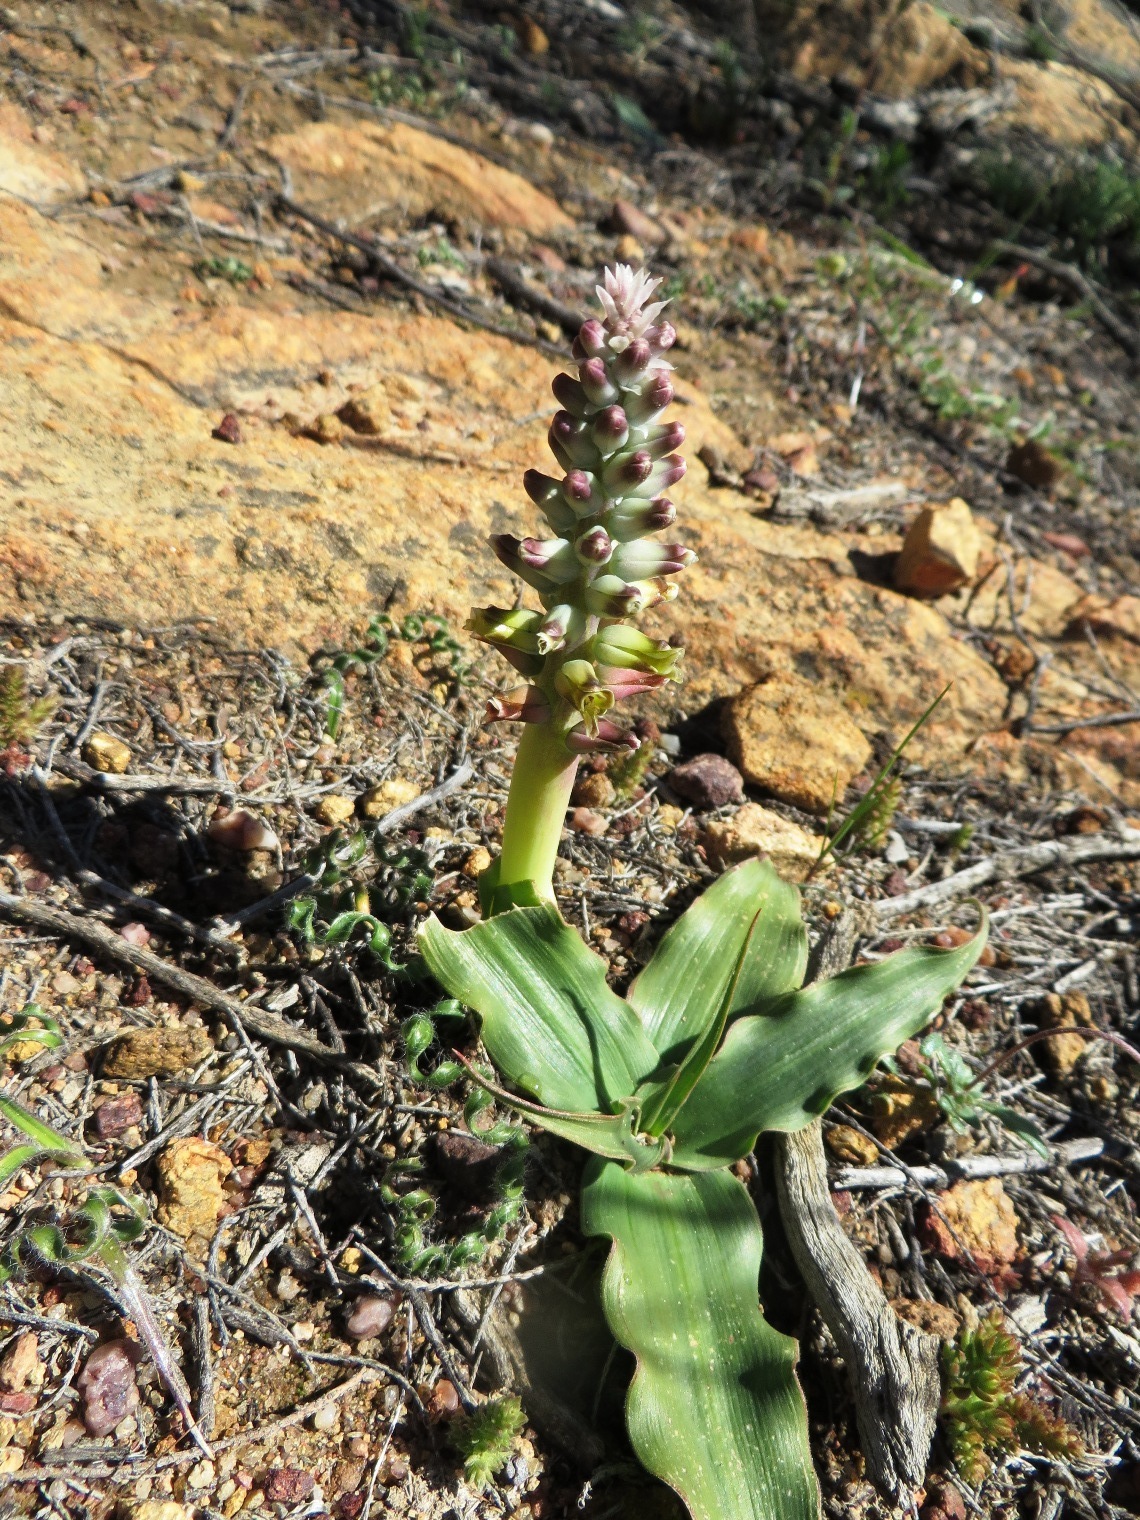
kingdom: Plantae
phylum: Tracheophyta
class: Liliopsida
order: Asparagales
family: Asparagaceae
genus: Lachenalia
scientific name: Lachenalia mutabilis
